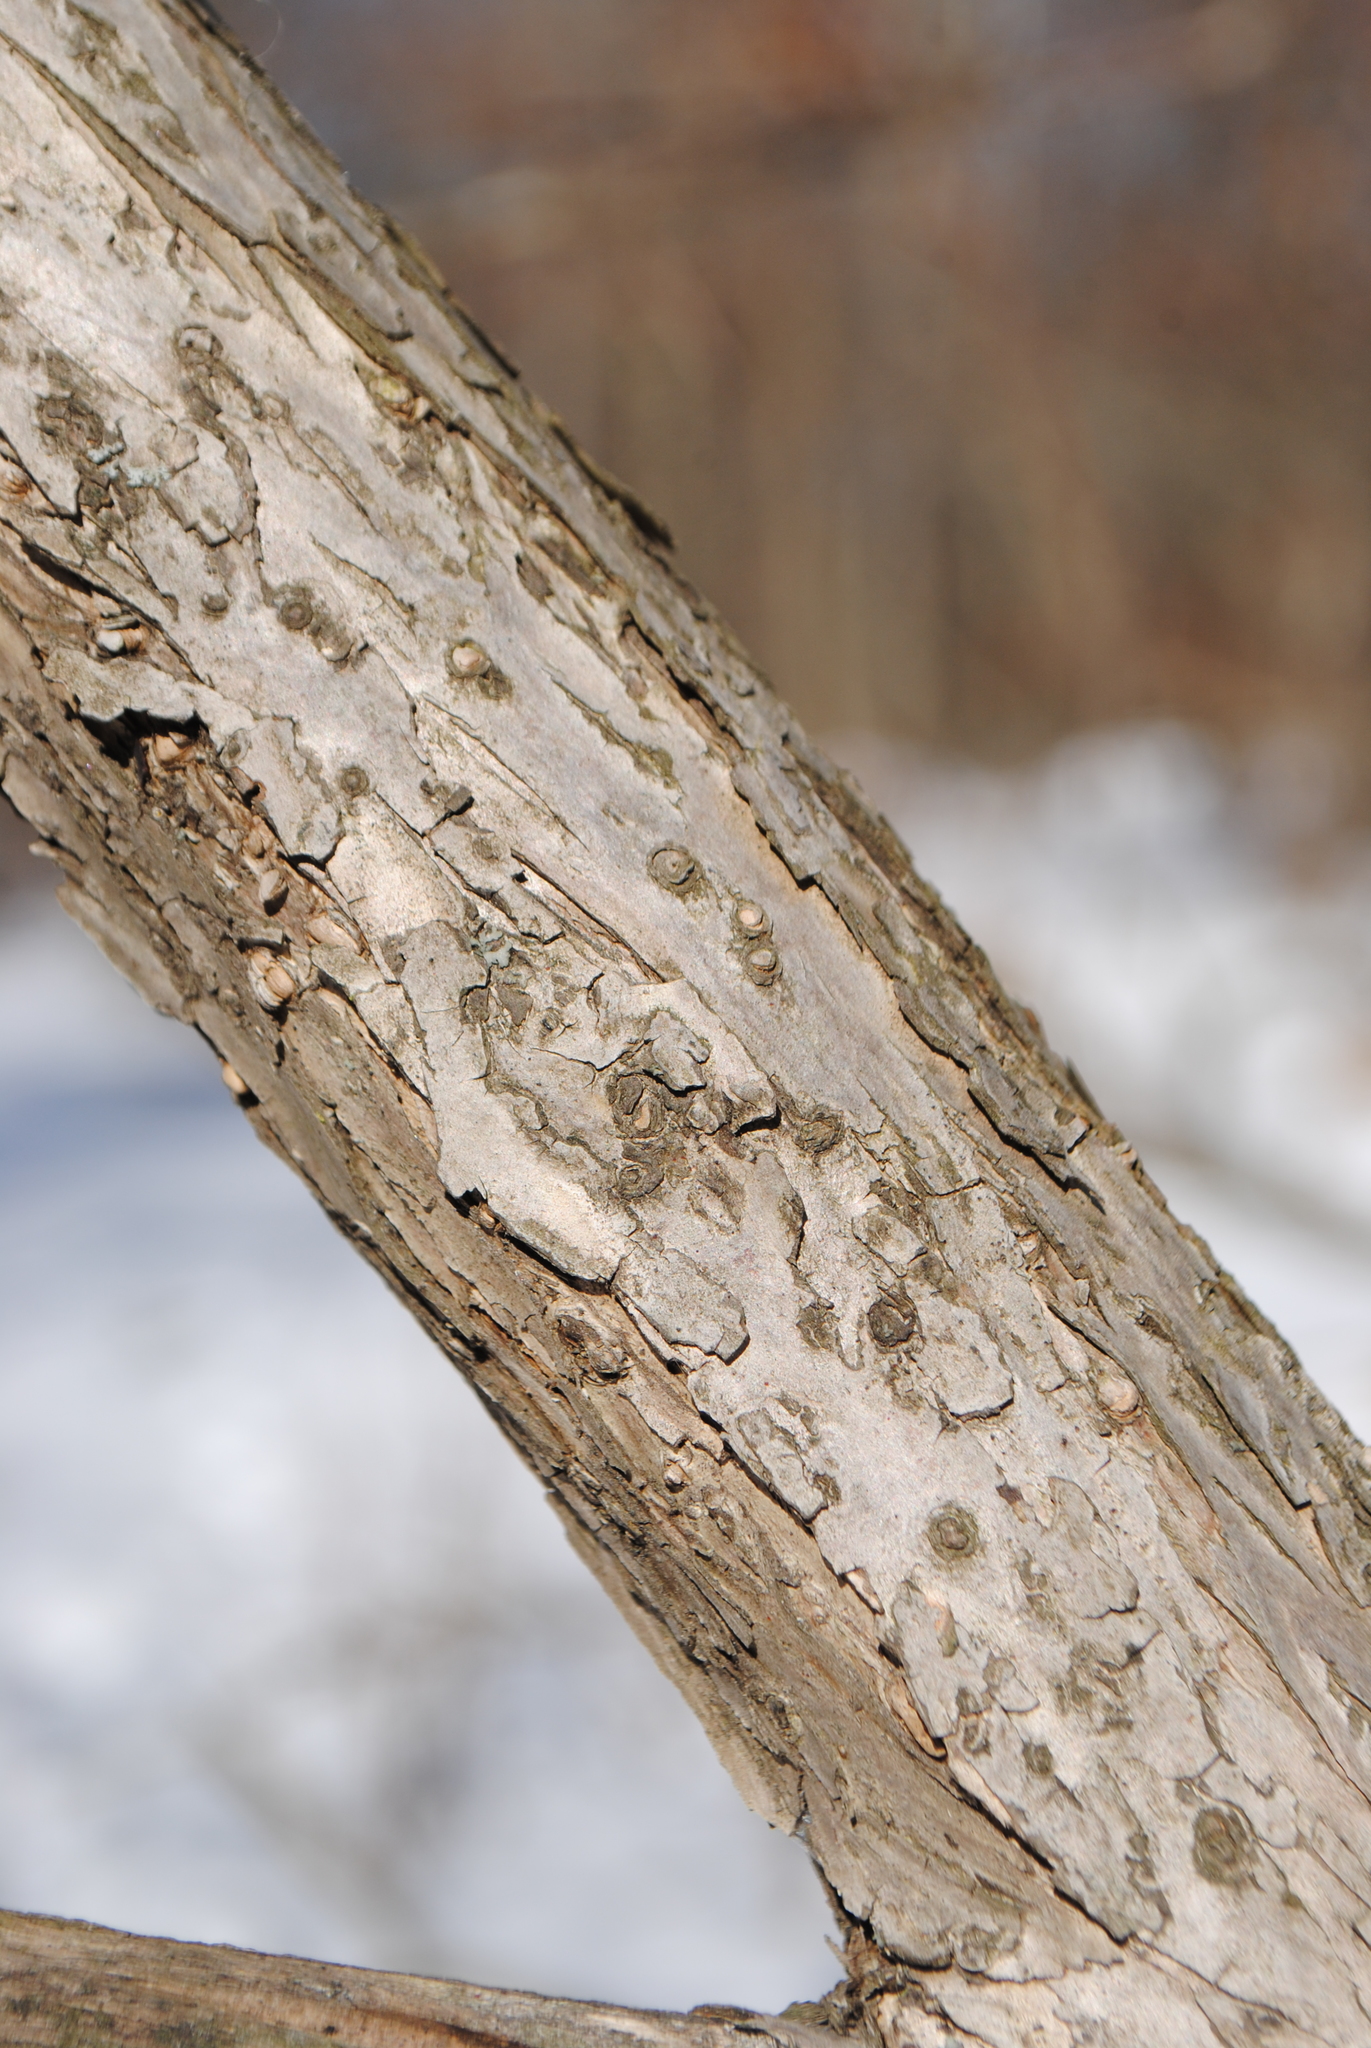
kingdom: Plantae
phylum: Tracheophyta
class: Magnoliopsida
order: Gentianales
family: Rubiaceae
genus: Cephalanthus
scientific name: Cephalanthus occidentalis
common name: Button-willow
